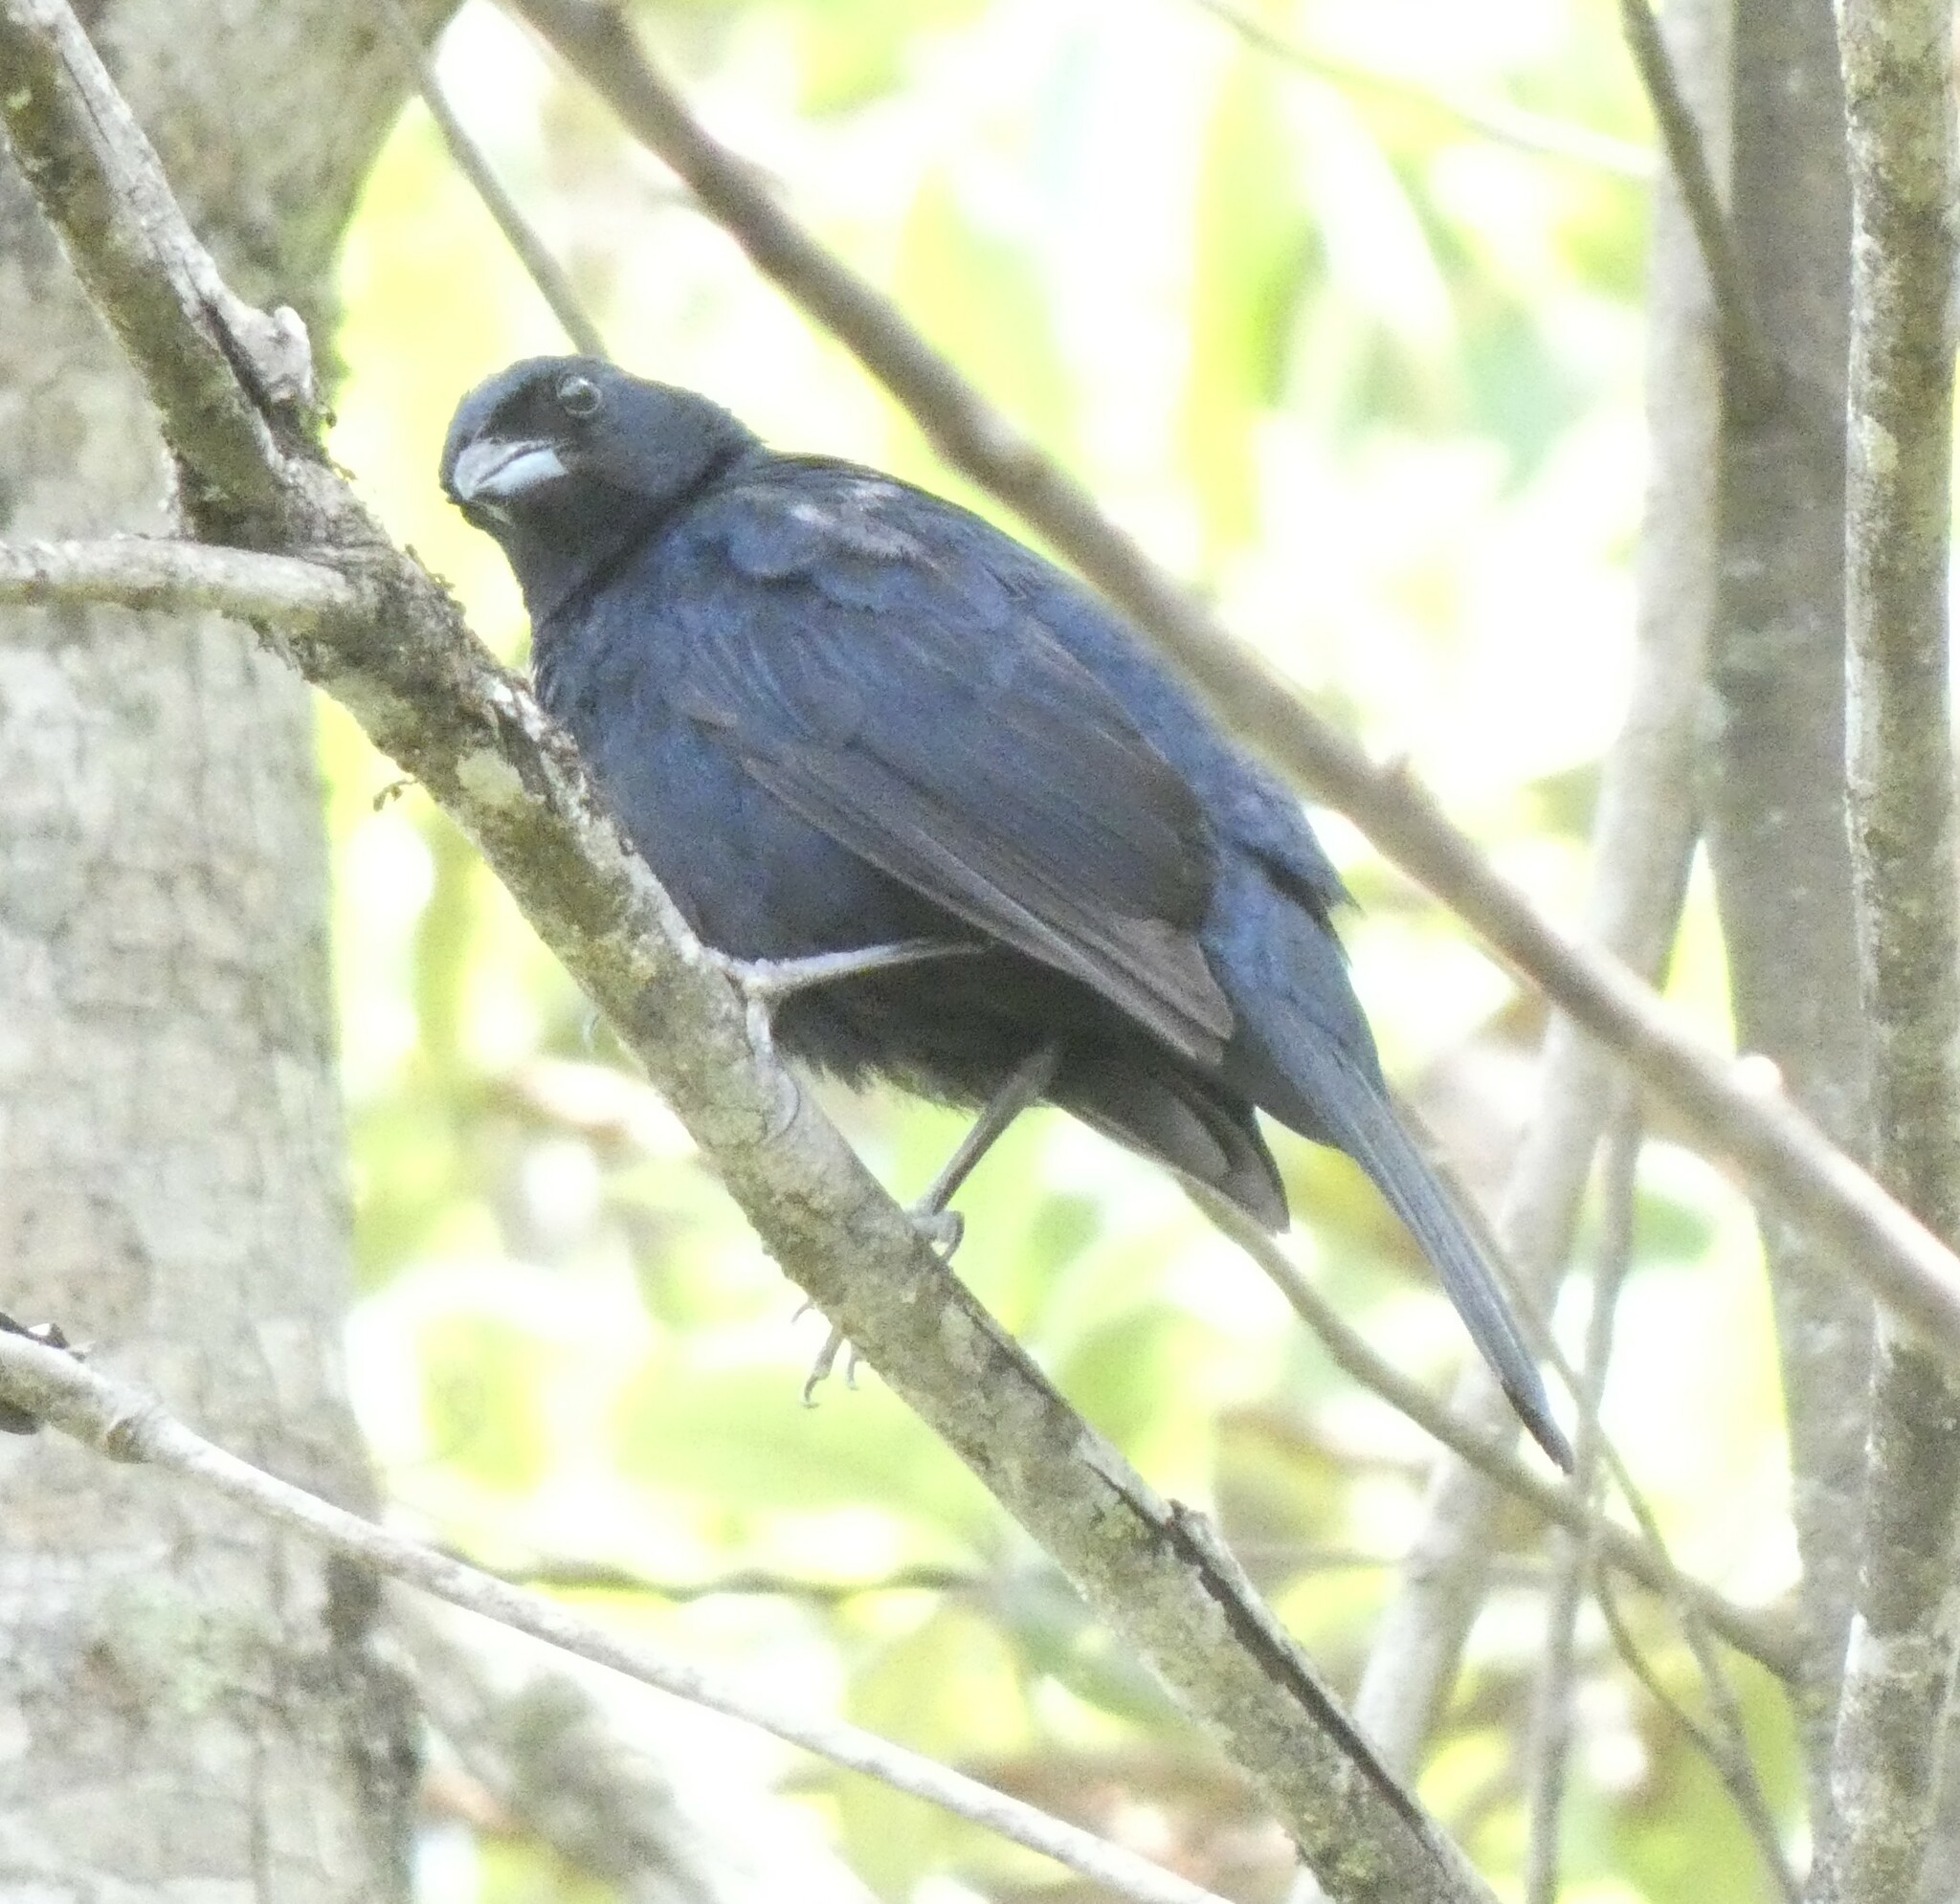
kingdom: Animalia
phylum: Chordata
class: Aves
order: Passeriformes
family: Thraupidae
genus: Tachyphonus
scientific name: Tachyphonus coronatus
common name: Ruby-crowned tanager
